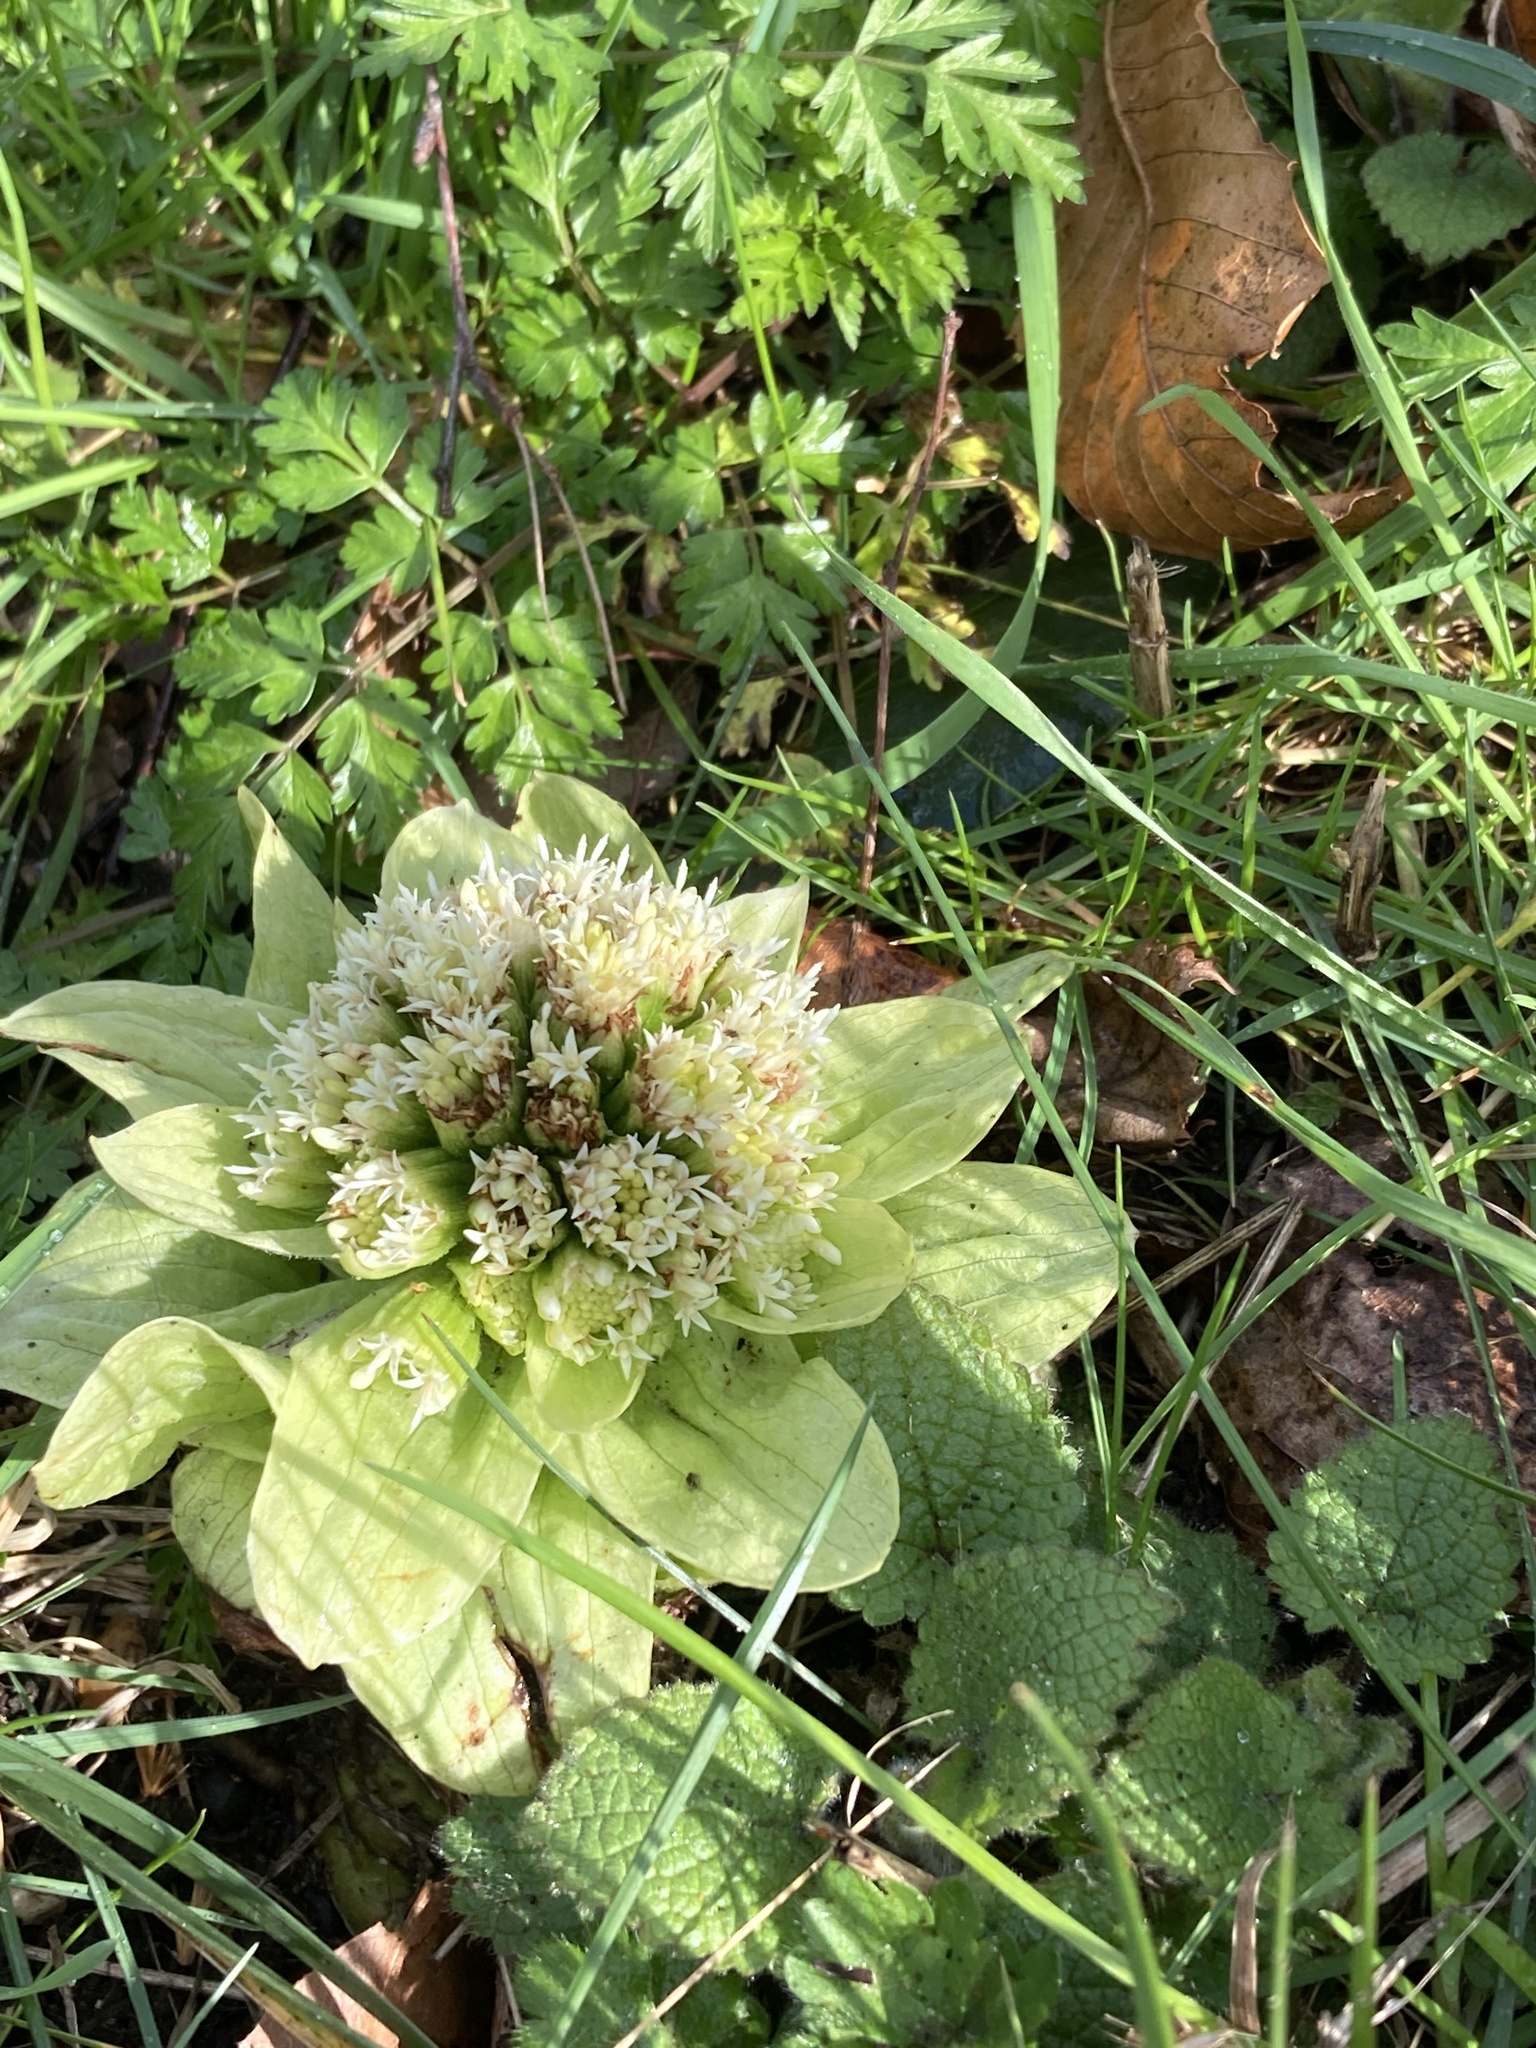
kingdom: Plantae
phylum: Tracheophyta
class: Magnoliopsida
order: Asterales
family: Asteraceae
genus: Petasites
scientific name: Petasites japonicus
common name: Giant butterbur
